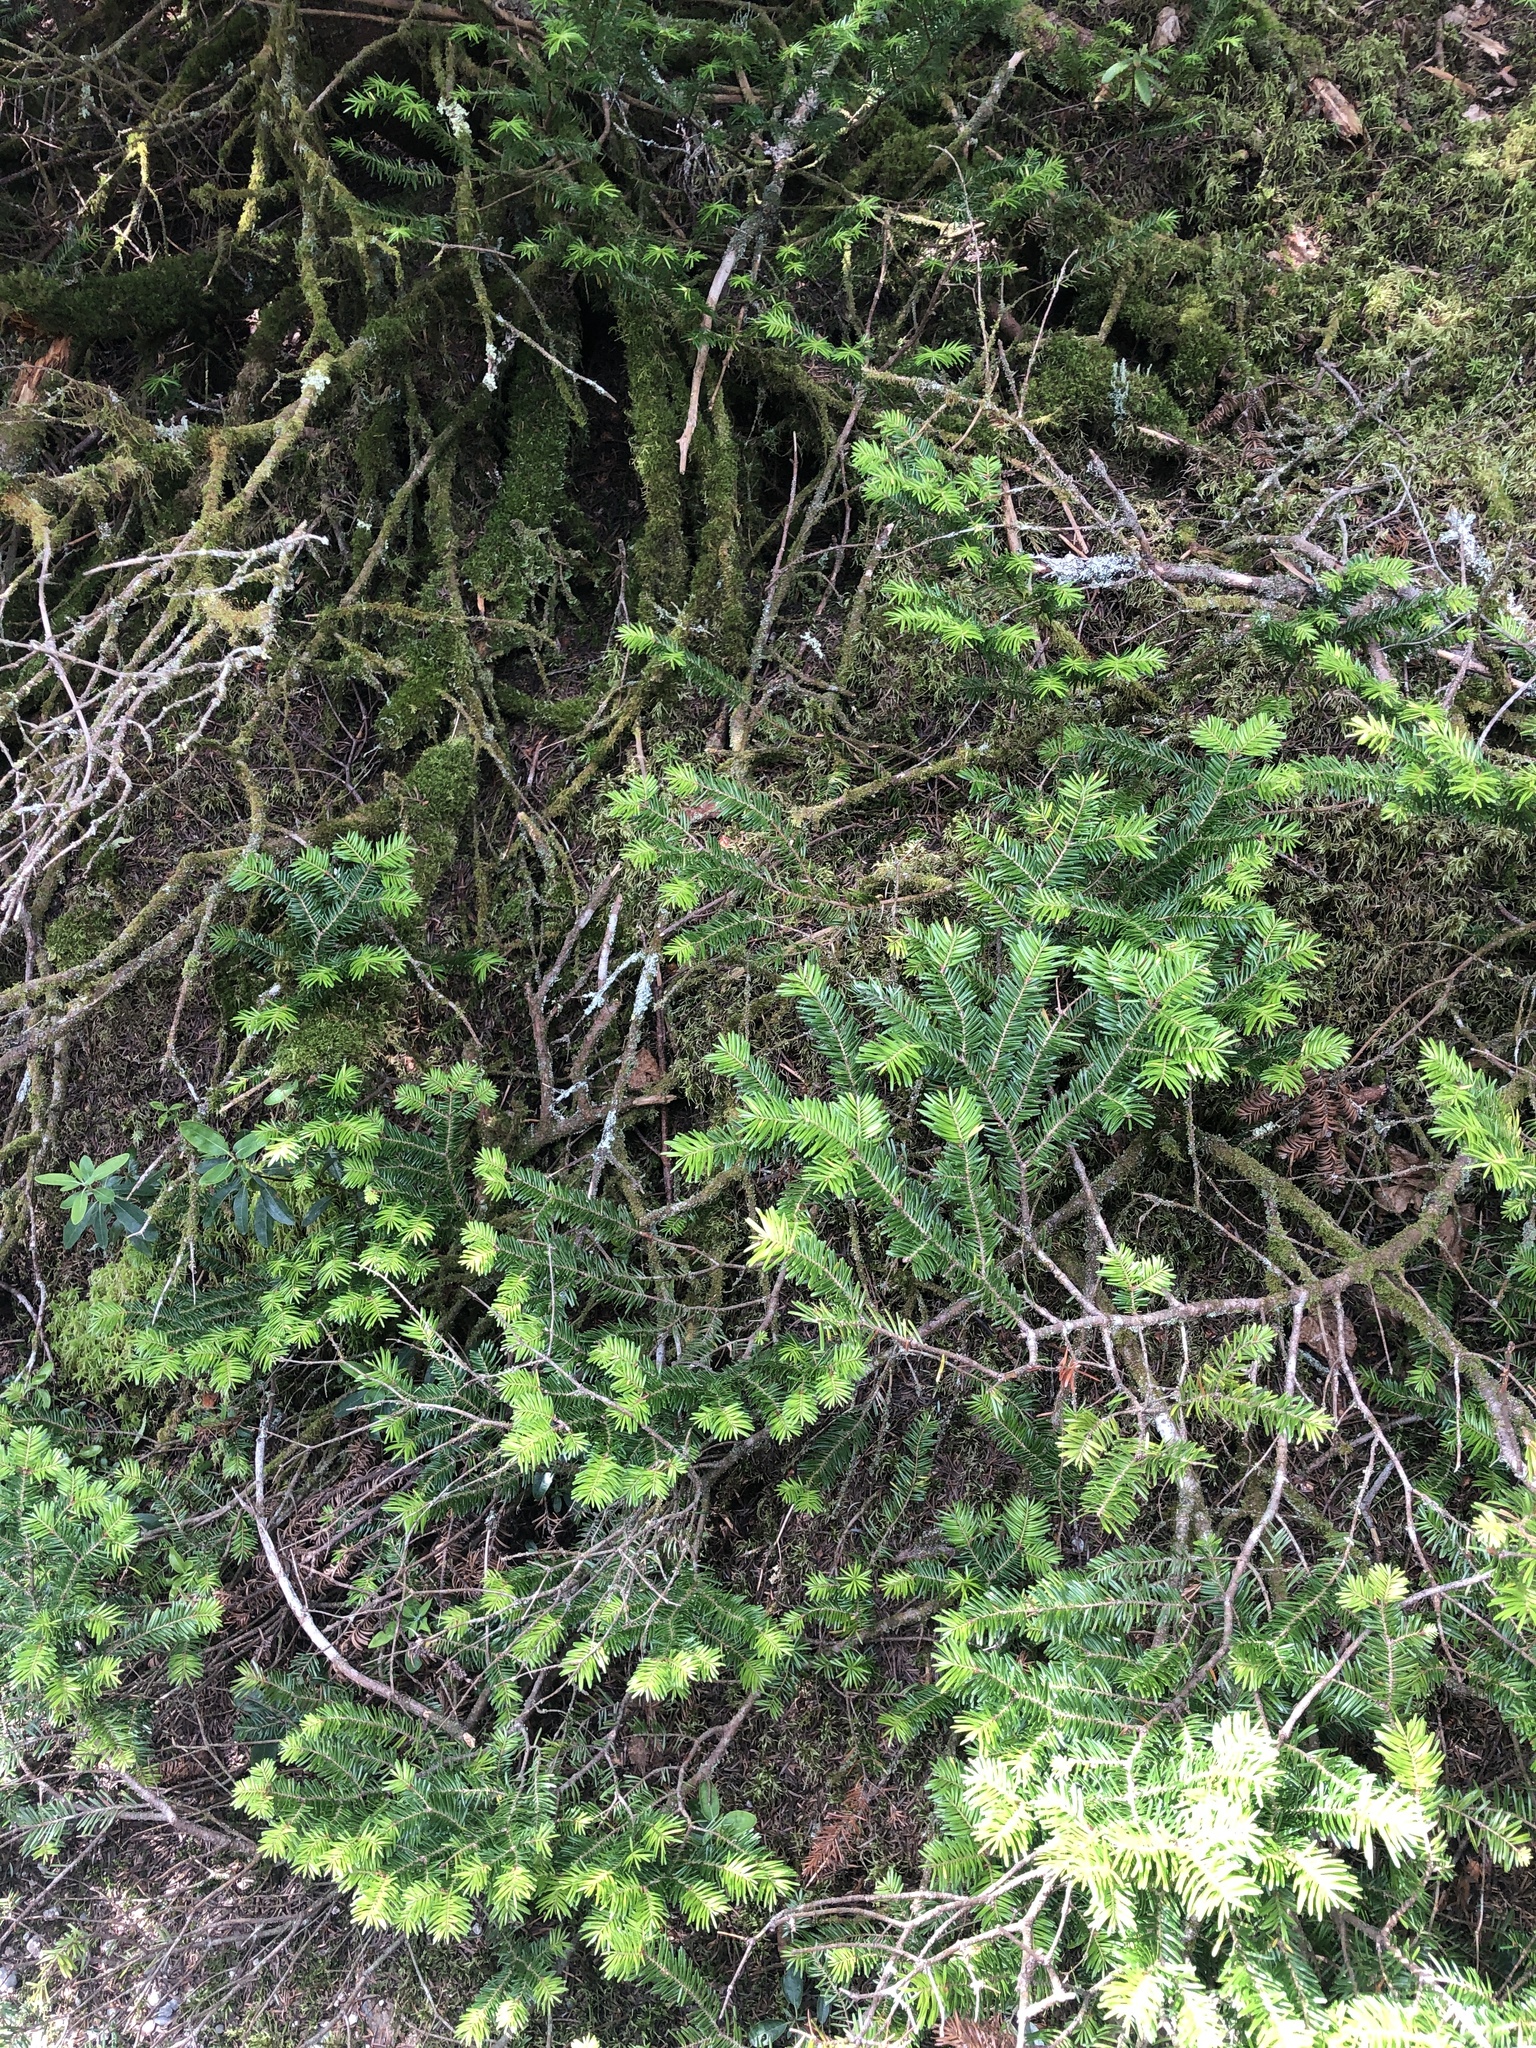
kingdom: Plantae
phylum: Tracheophyta
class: Pinopsida
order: Pinales
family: Pinaceae
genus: Abies
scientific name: Abies balsamea
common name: Balsam fir
